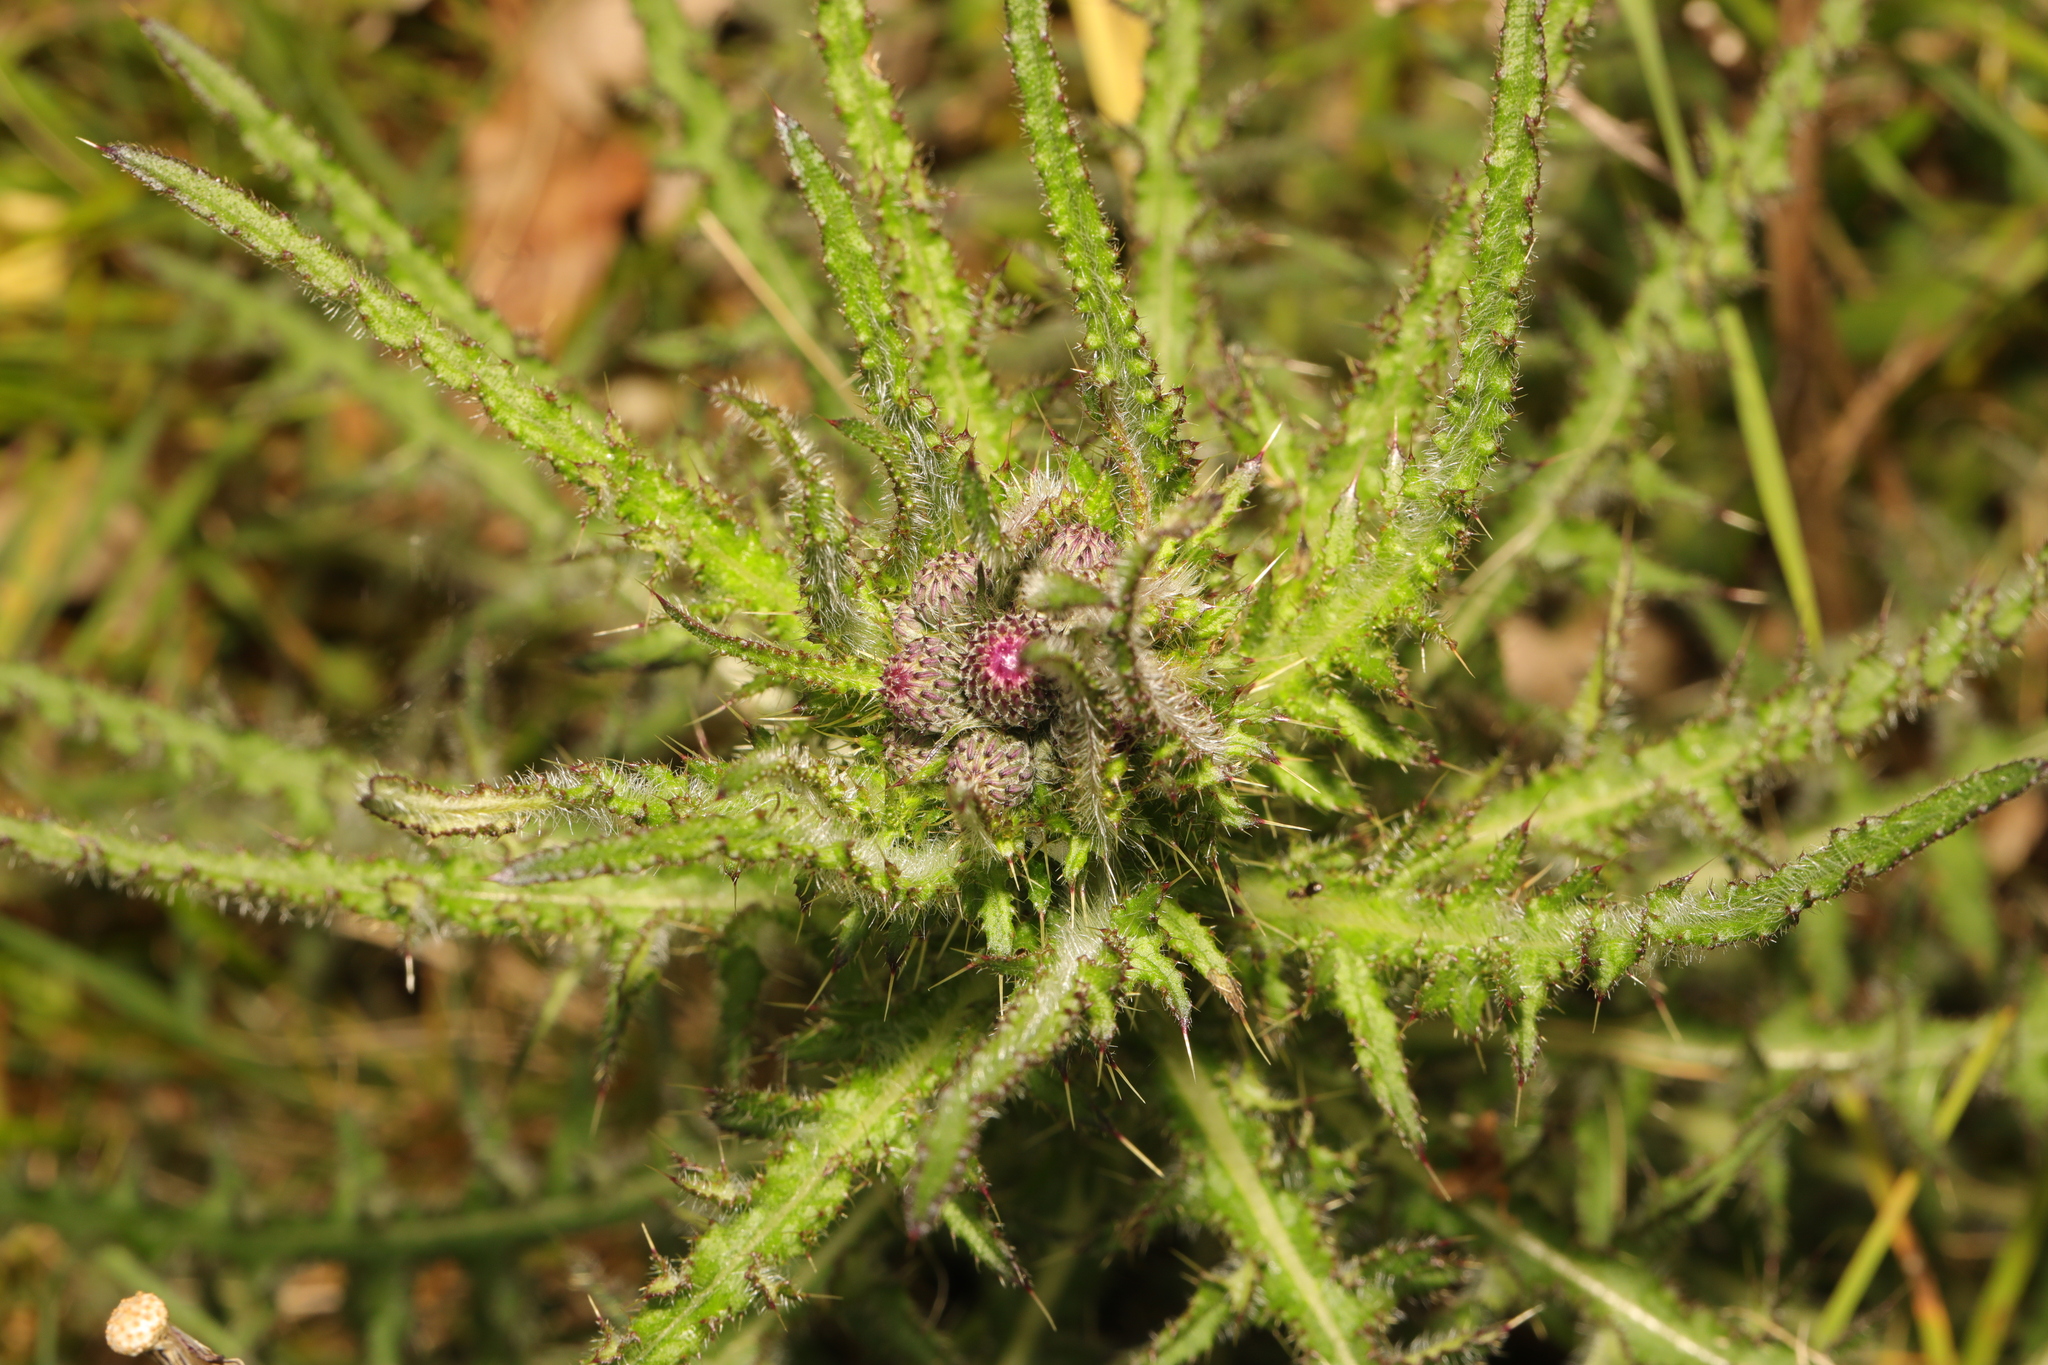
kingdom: Plantae
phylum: Tracheophyta
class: Magnoliopsida
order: Asterales
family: Asteraceae
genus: Cirsium
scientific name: Cirsium palustre
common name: Marsh thistle
